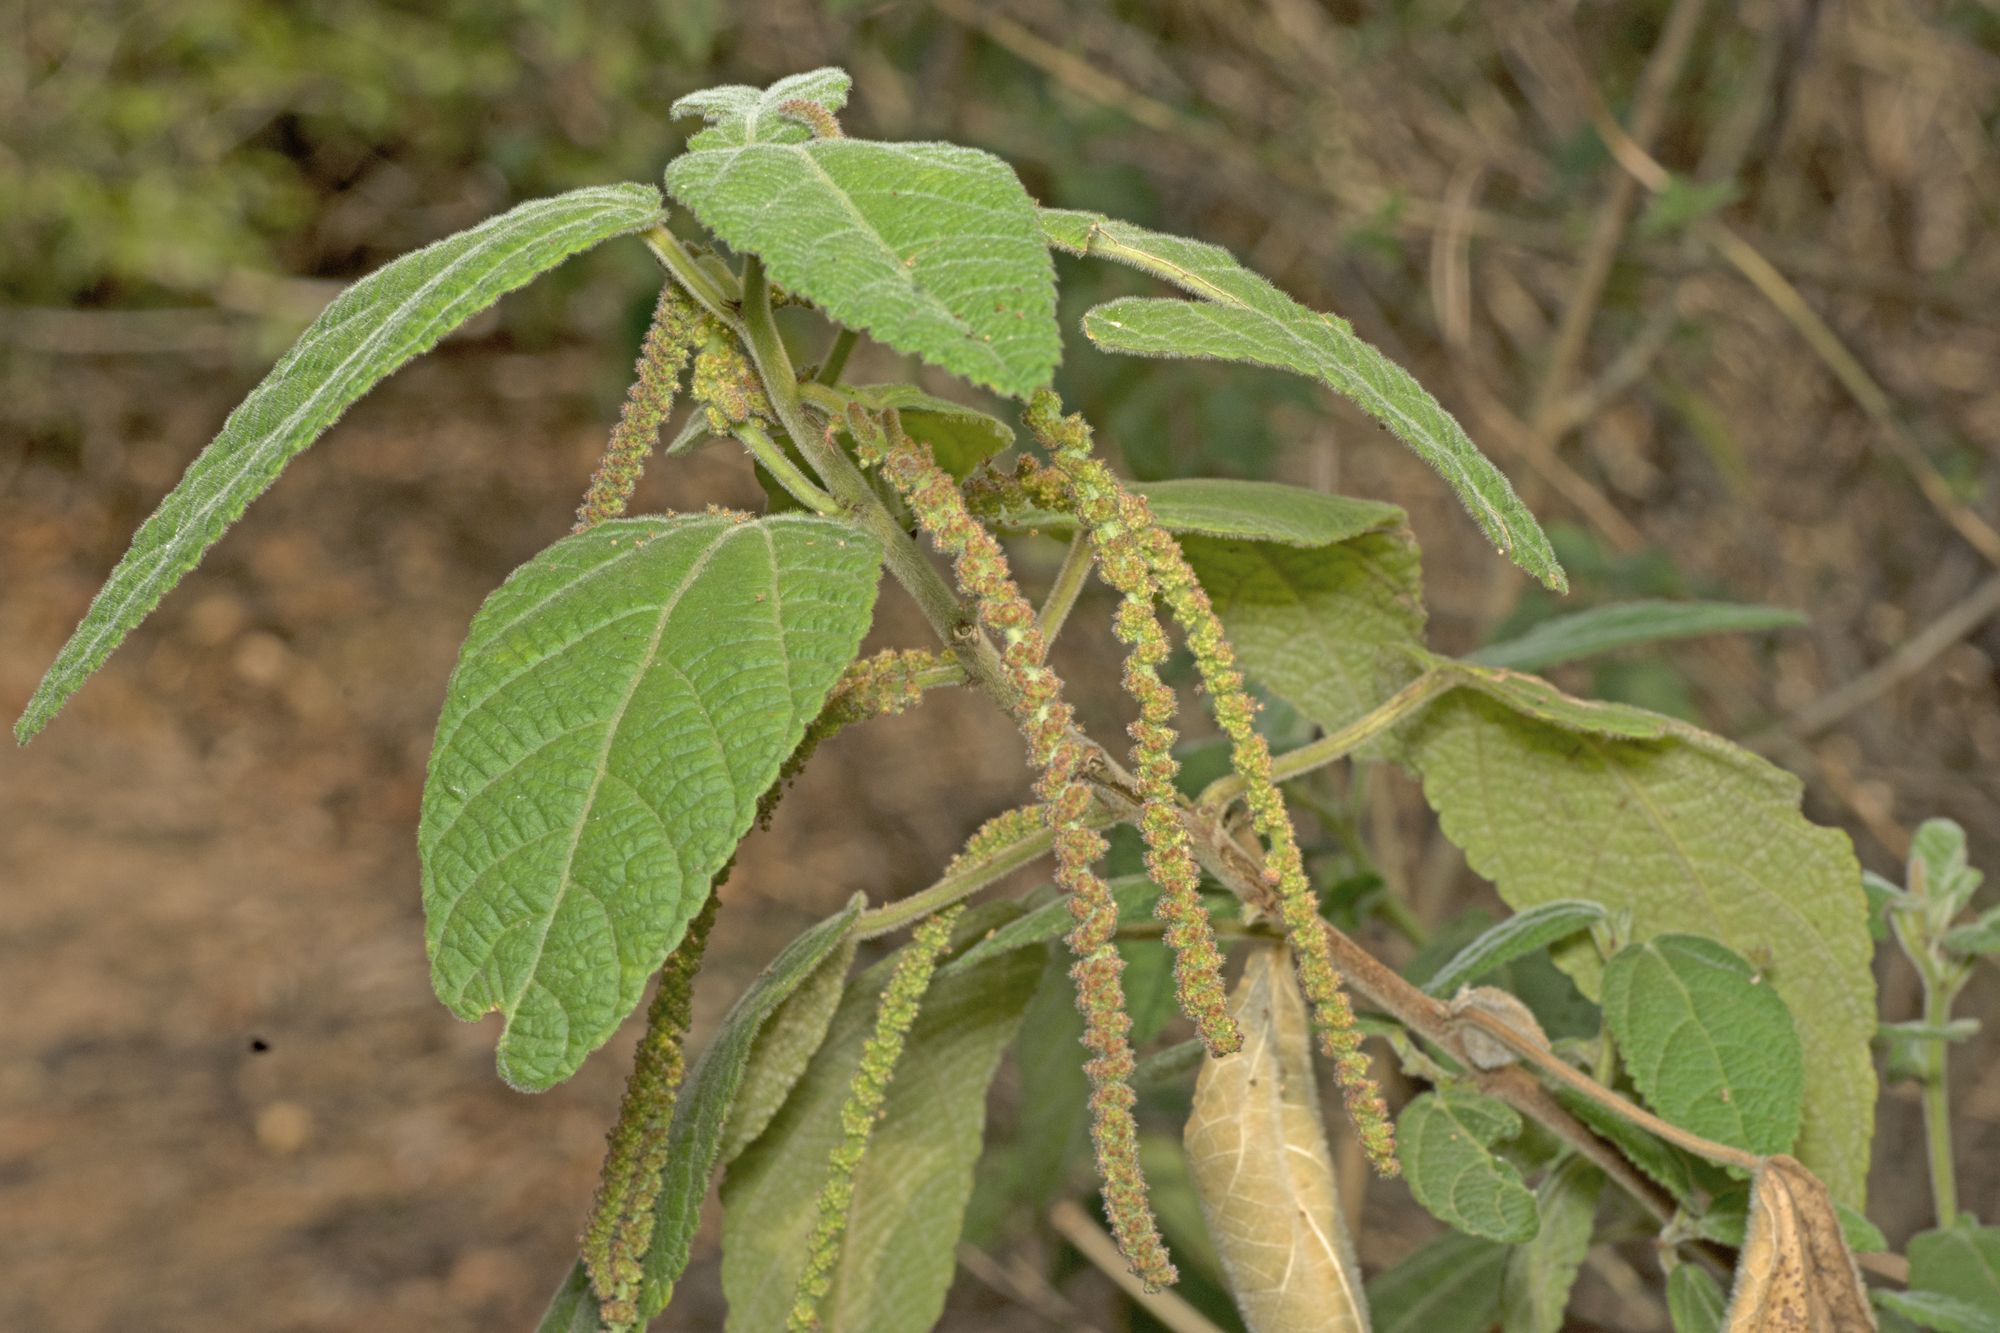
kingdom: Plantae
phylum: Tracheophyta
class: Magnoliopsida
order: Malpighiales
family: Euphorbiaceae
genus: Acalypha
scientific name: Acalypha nemorum
